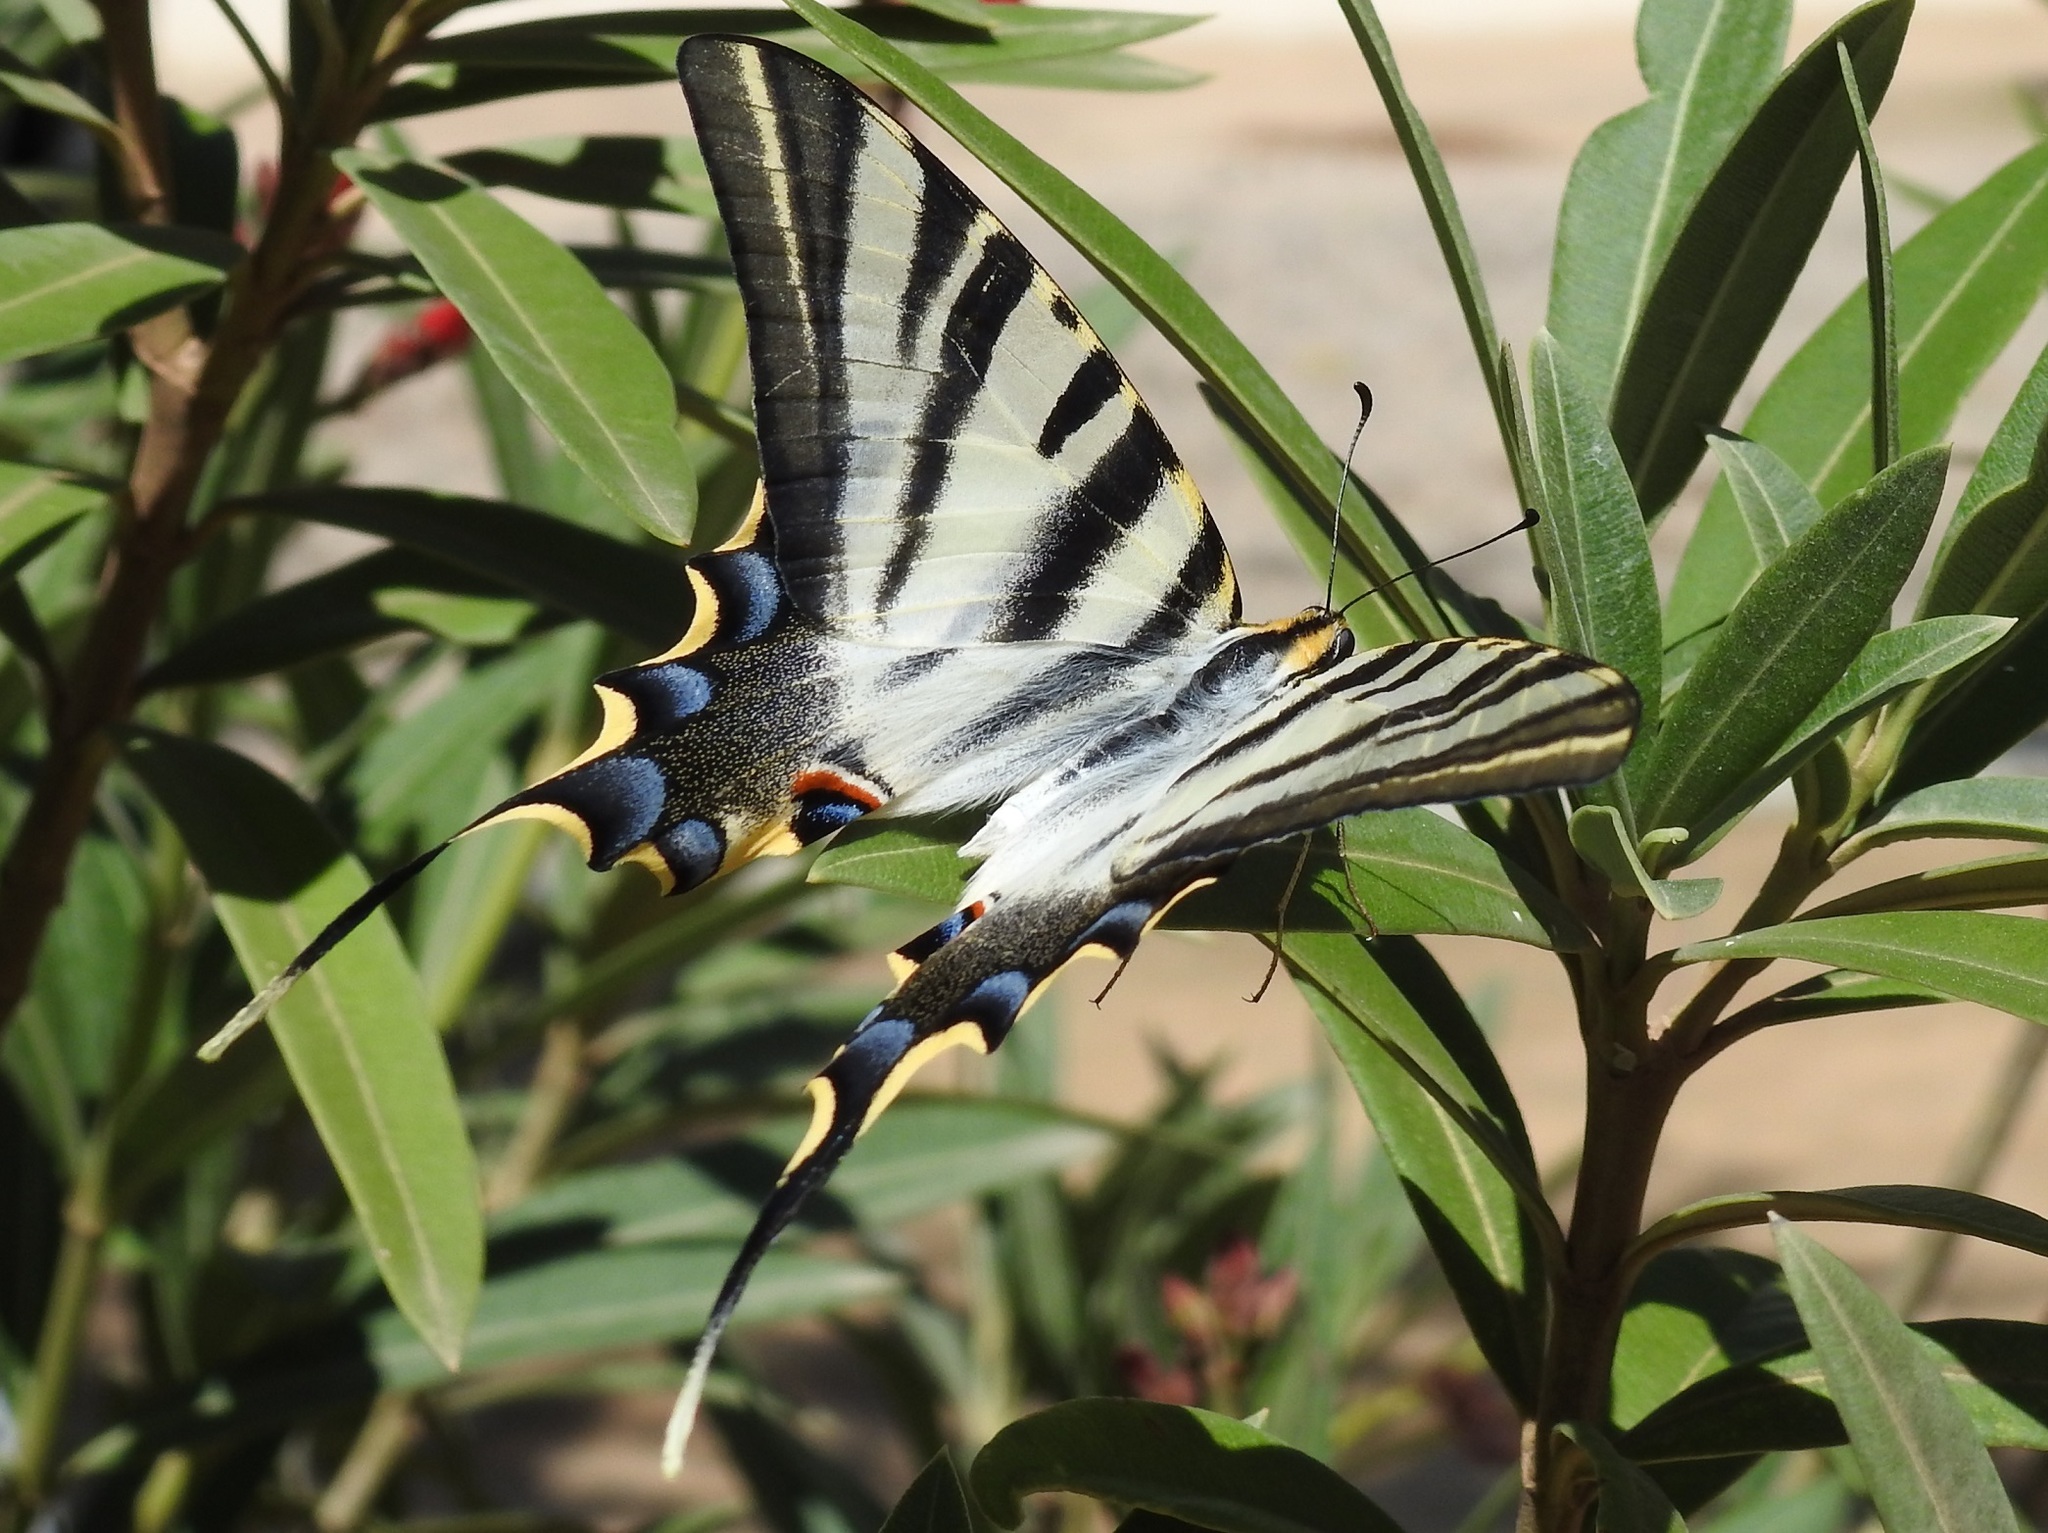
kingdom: Animalia
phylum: Arthropoda
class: Insecta
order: Lepidoptera
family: Papilionidae
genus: Iphiclides
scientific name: Iphiclides feisthamelii
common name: Iberian scarce swallowtail
